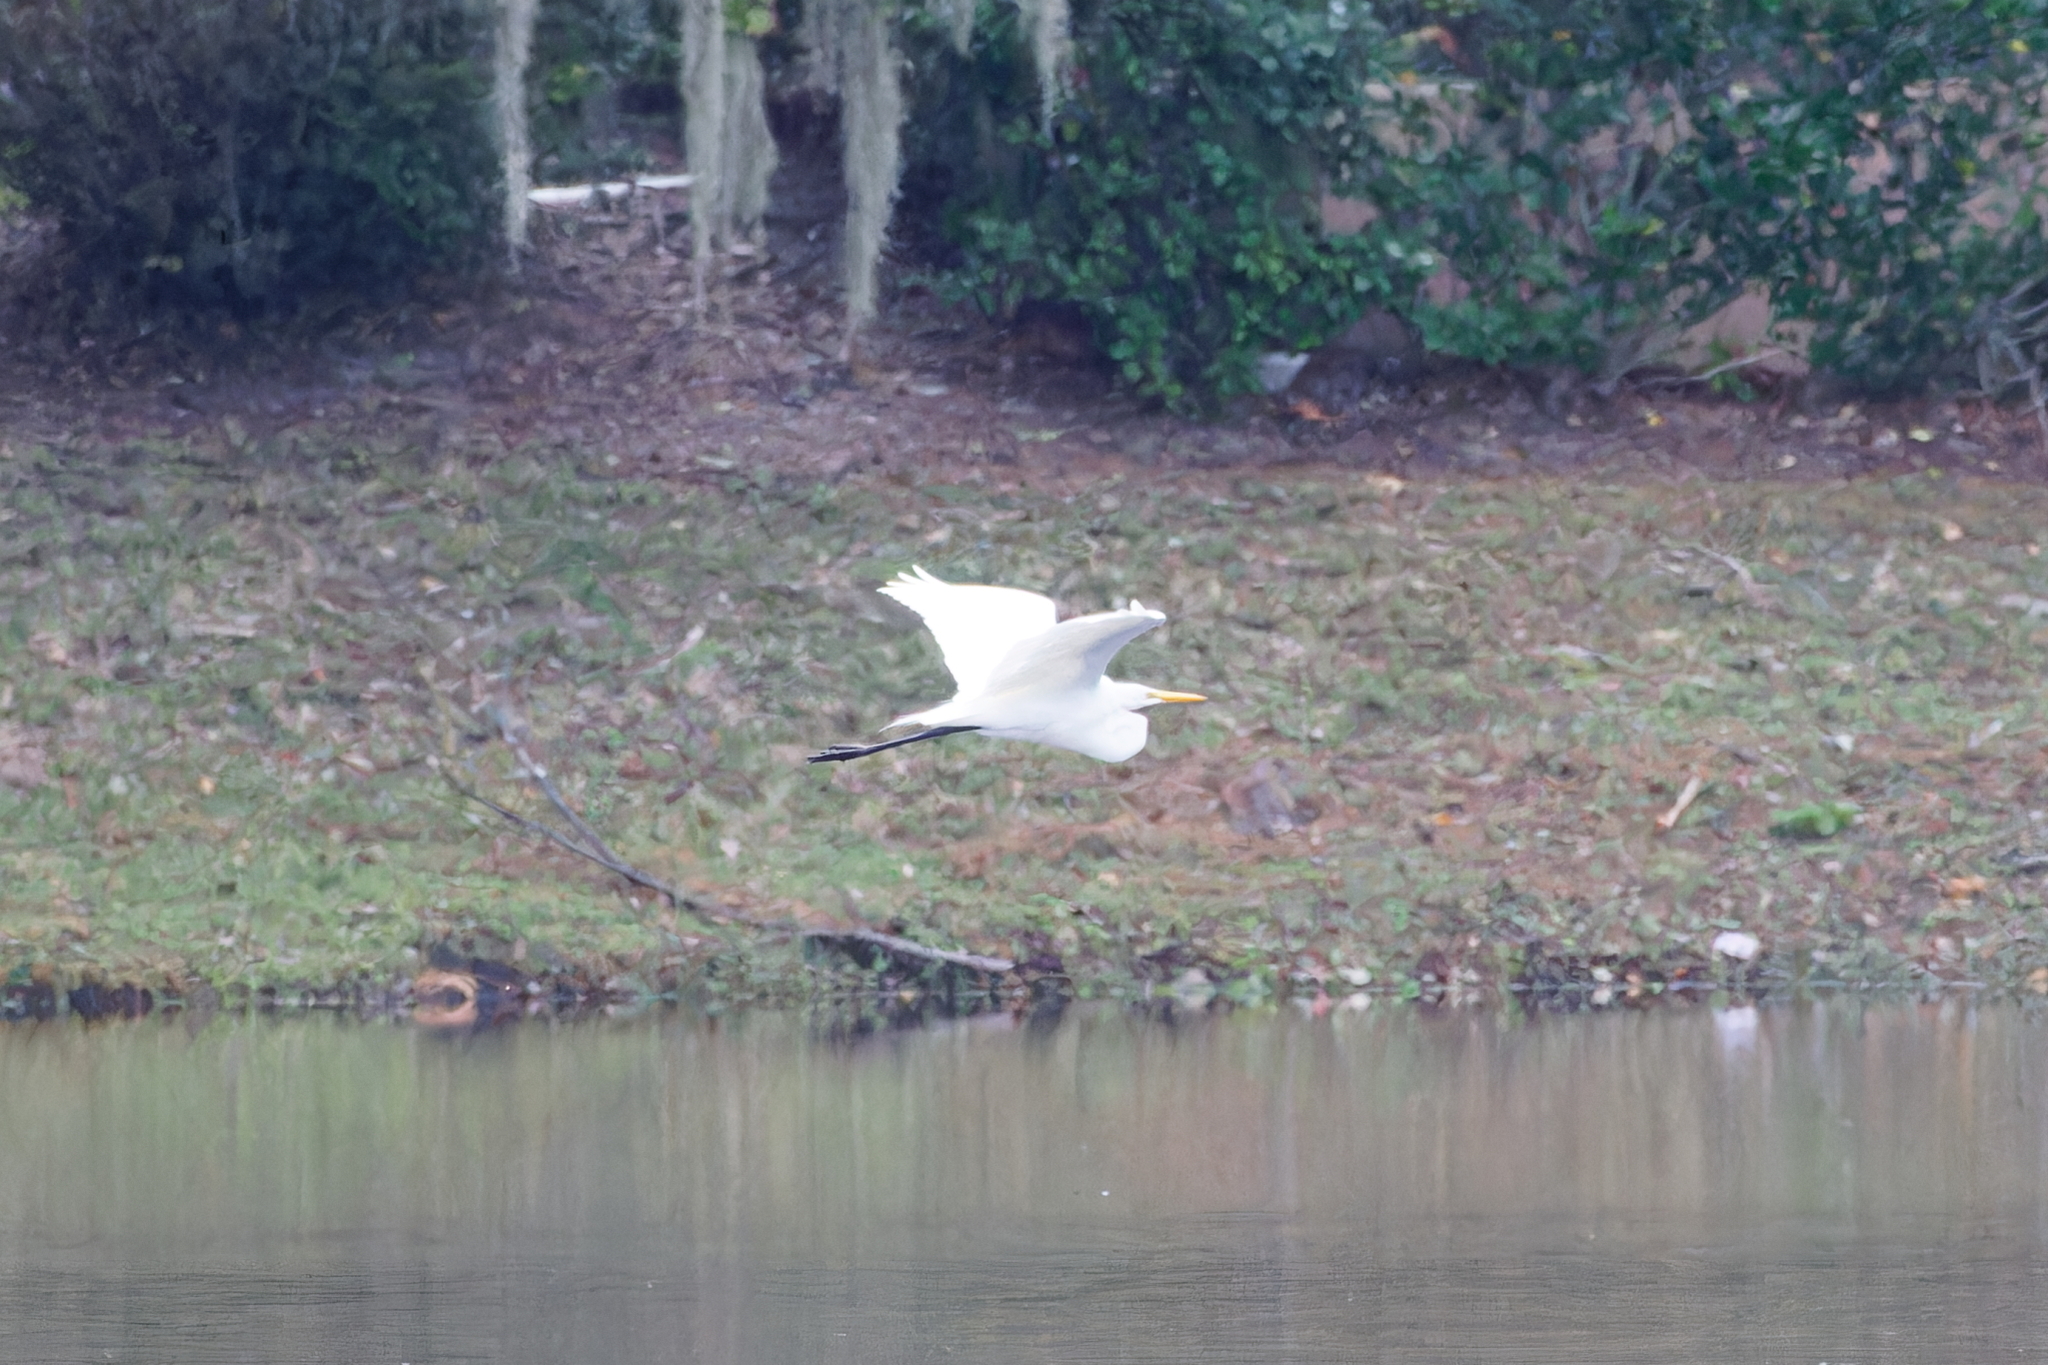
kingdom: Animalia
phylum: Chordata
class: Aves
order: Pelecaniformes
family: Ardeidae
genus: Ardea
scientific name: Ardea alba
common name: Great egret
